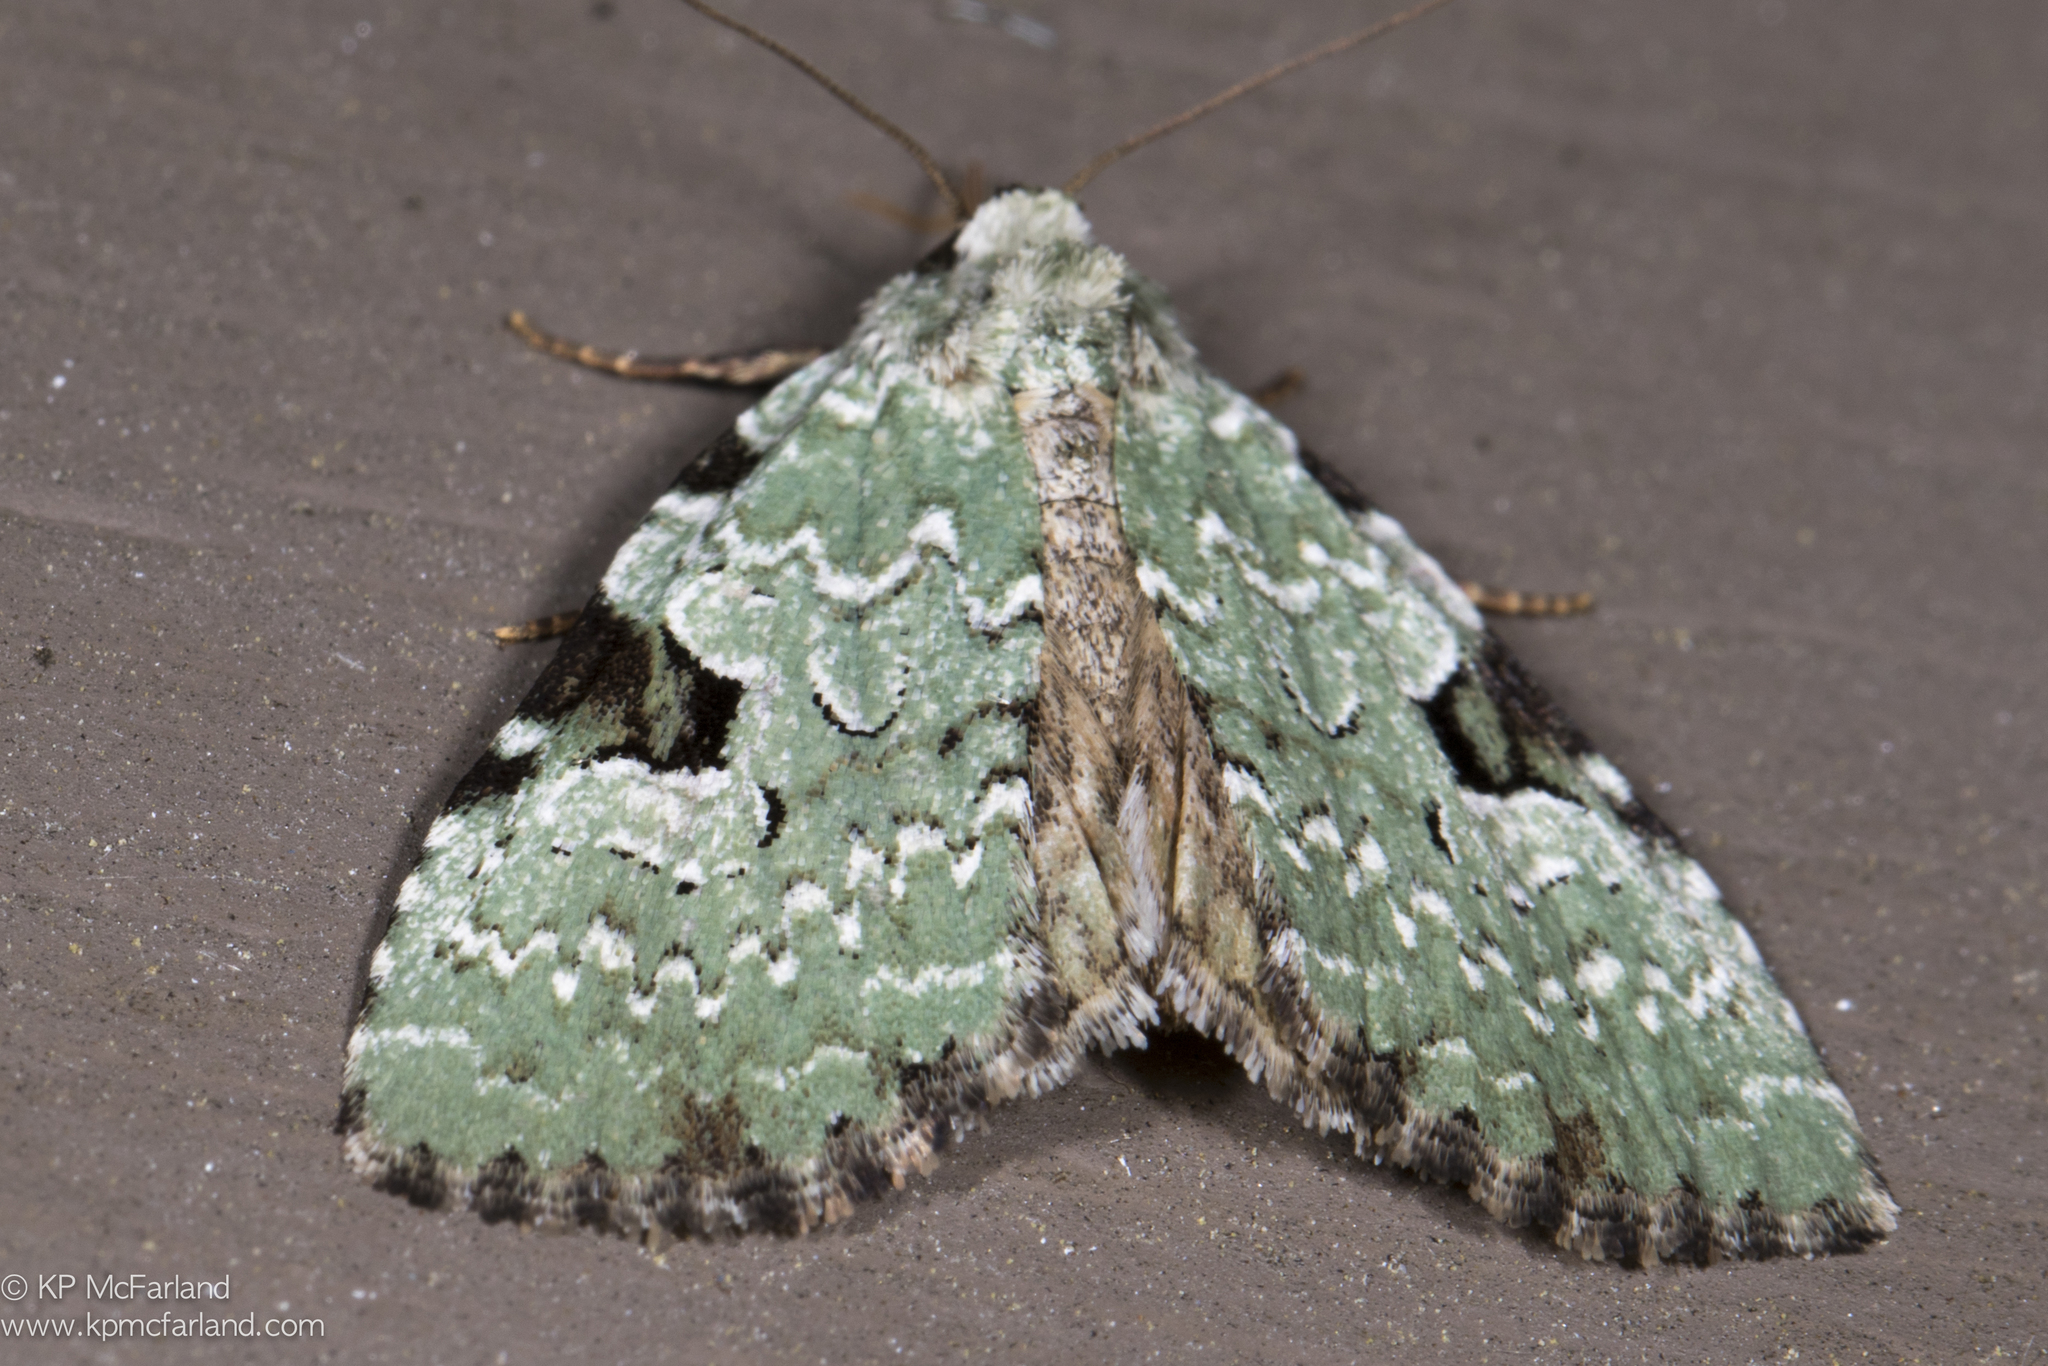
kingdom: Animalia
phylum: Arthropoda
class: Insecta
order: Lepidoptera
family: Noctuidae
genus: Leuconycta
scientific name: Leuconycta diphteroides
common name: Green leuconycta moth
